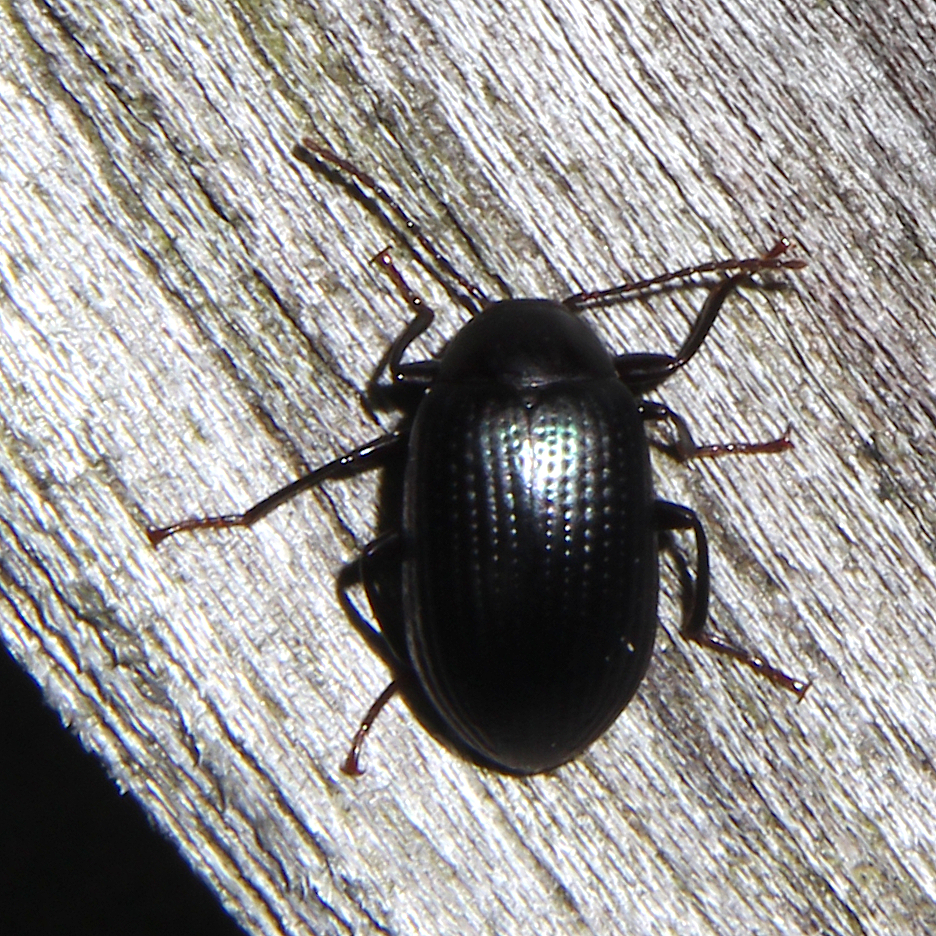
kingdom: Animalia
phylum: Arthropoda
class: Insecta
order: Coleoptera
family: Tenebrionidae
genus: Amarygmus
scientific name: Amarygmus
